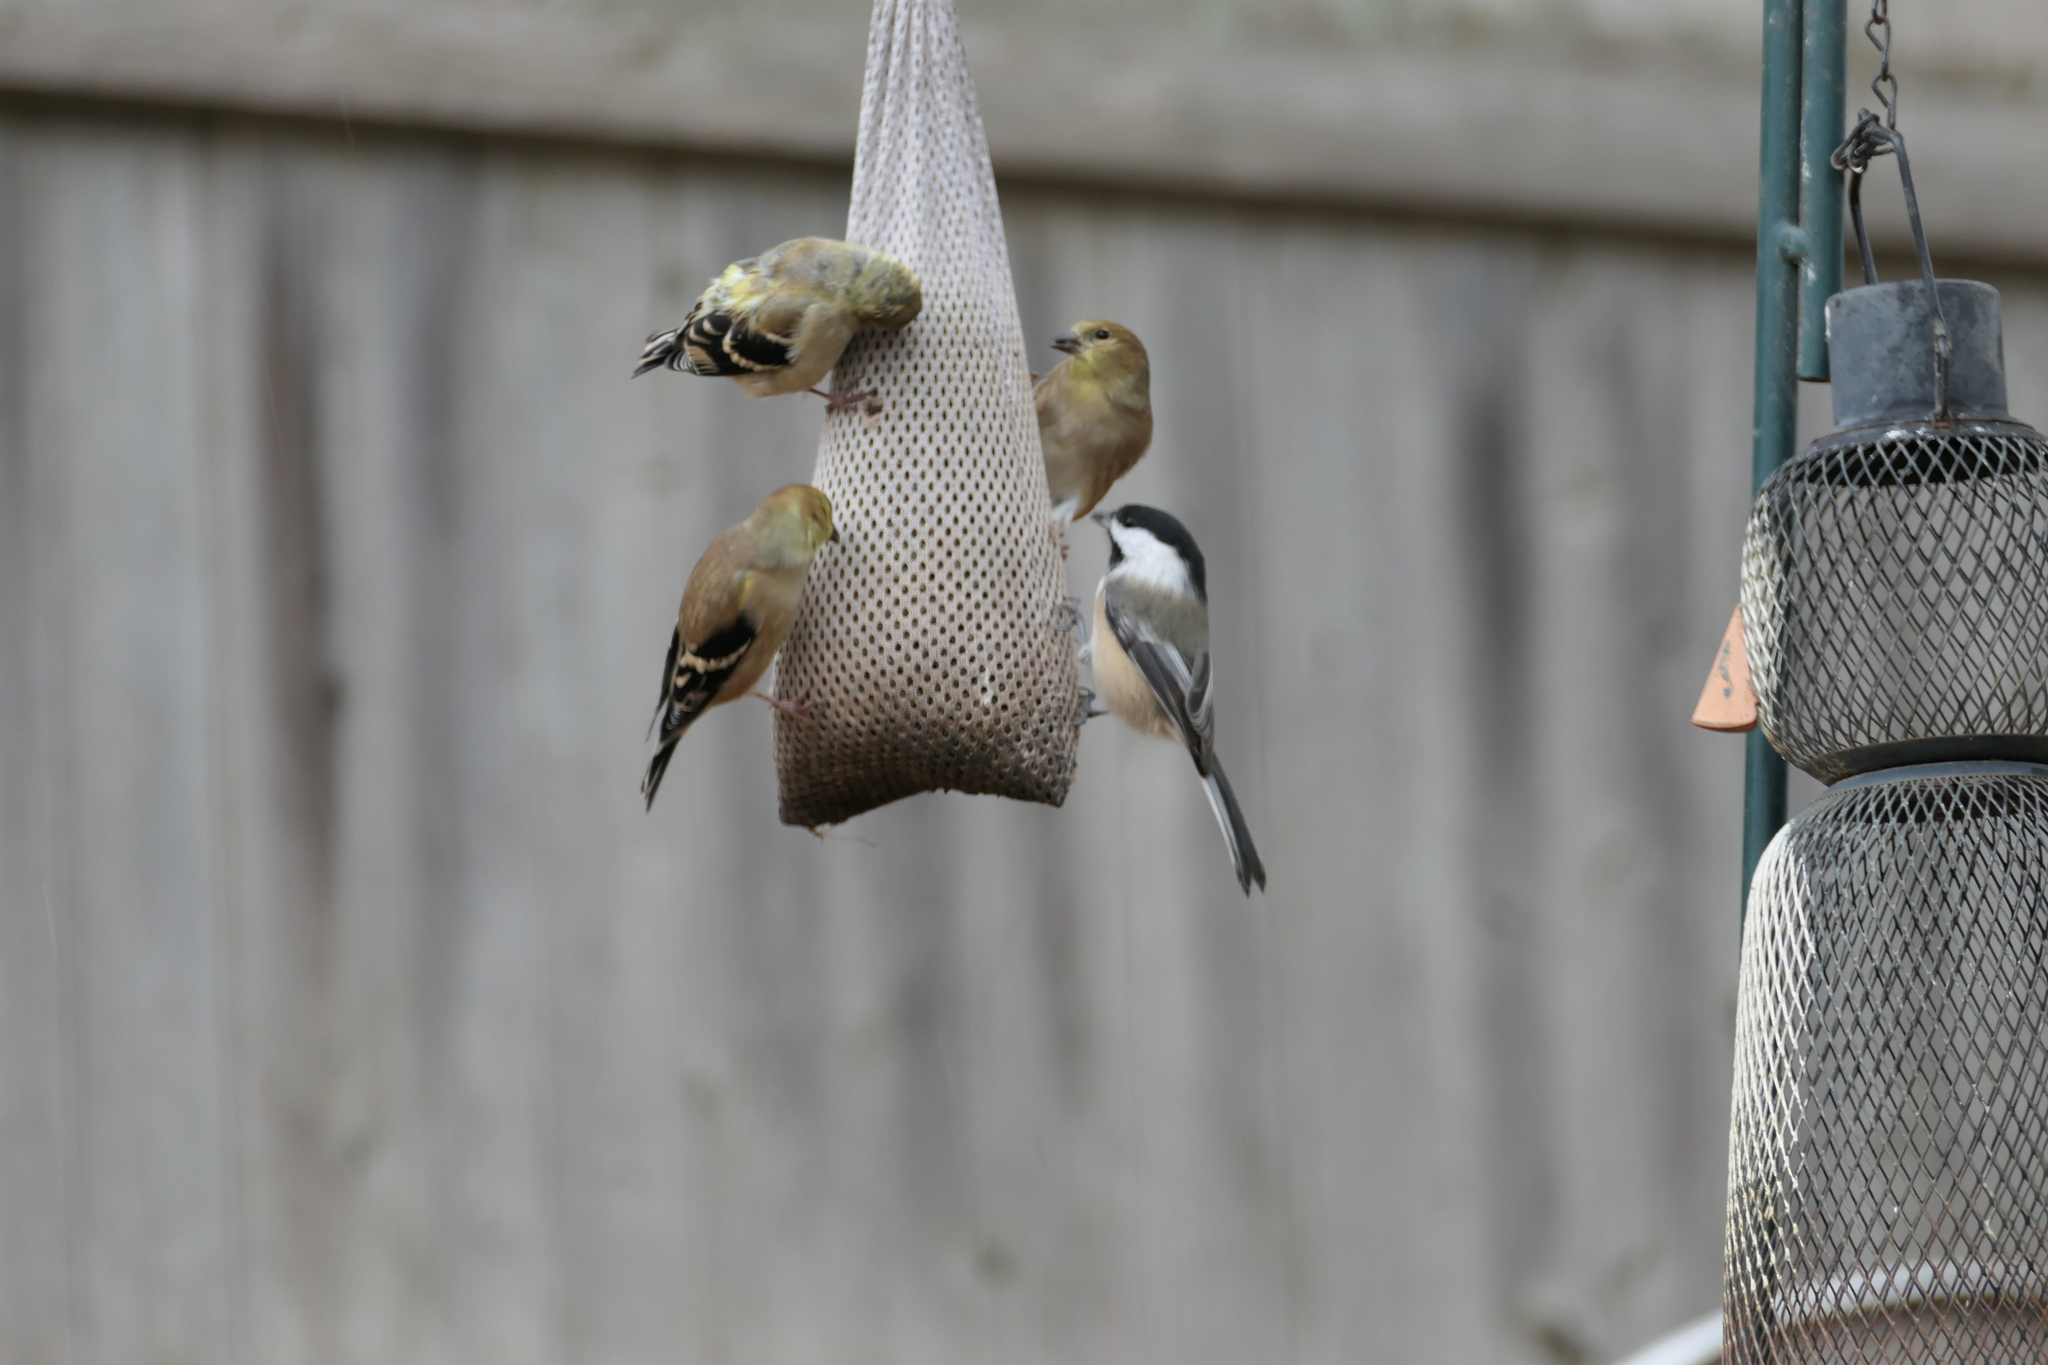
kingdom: Animalia
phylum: Chordata
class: Aves
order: Passeriformes
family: Fringillidae
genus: Spinus
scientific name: Spinus tristis
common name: American goldfinch
